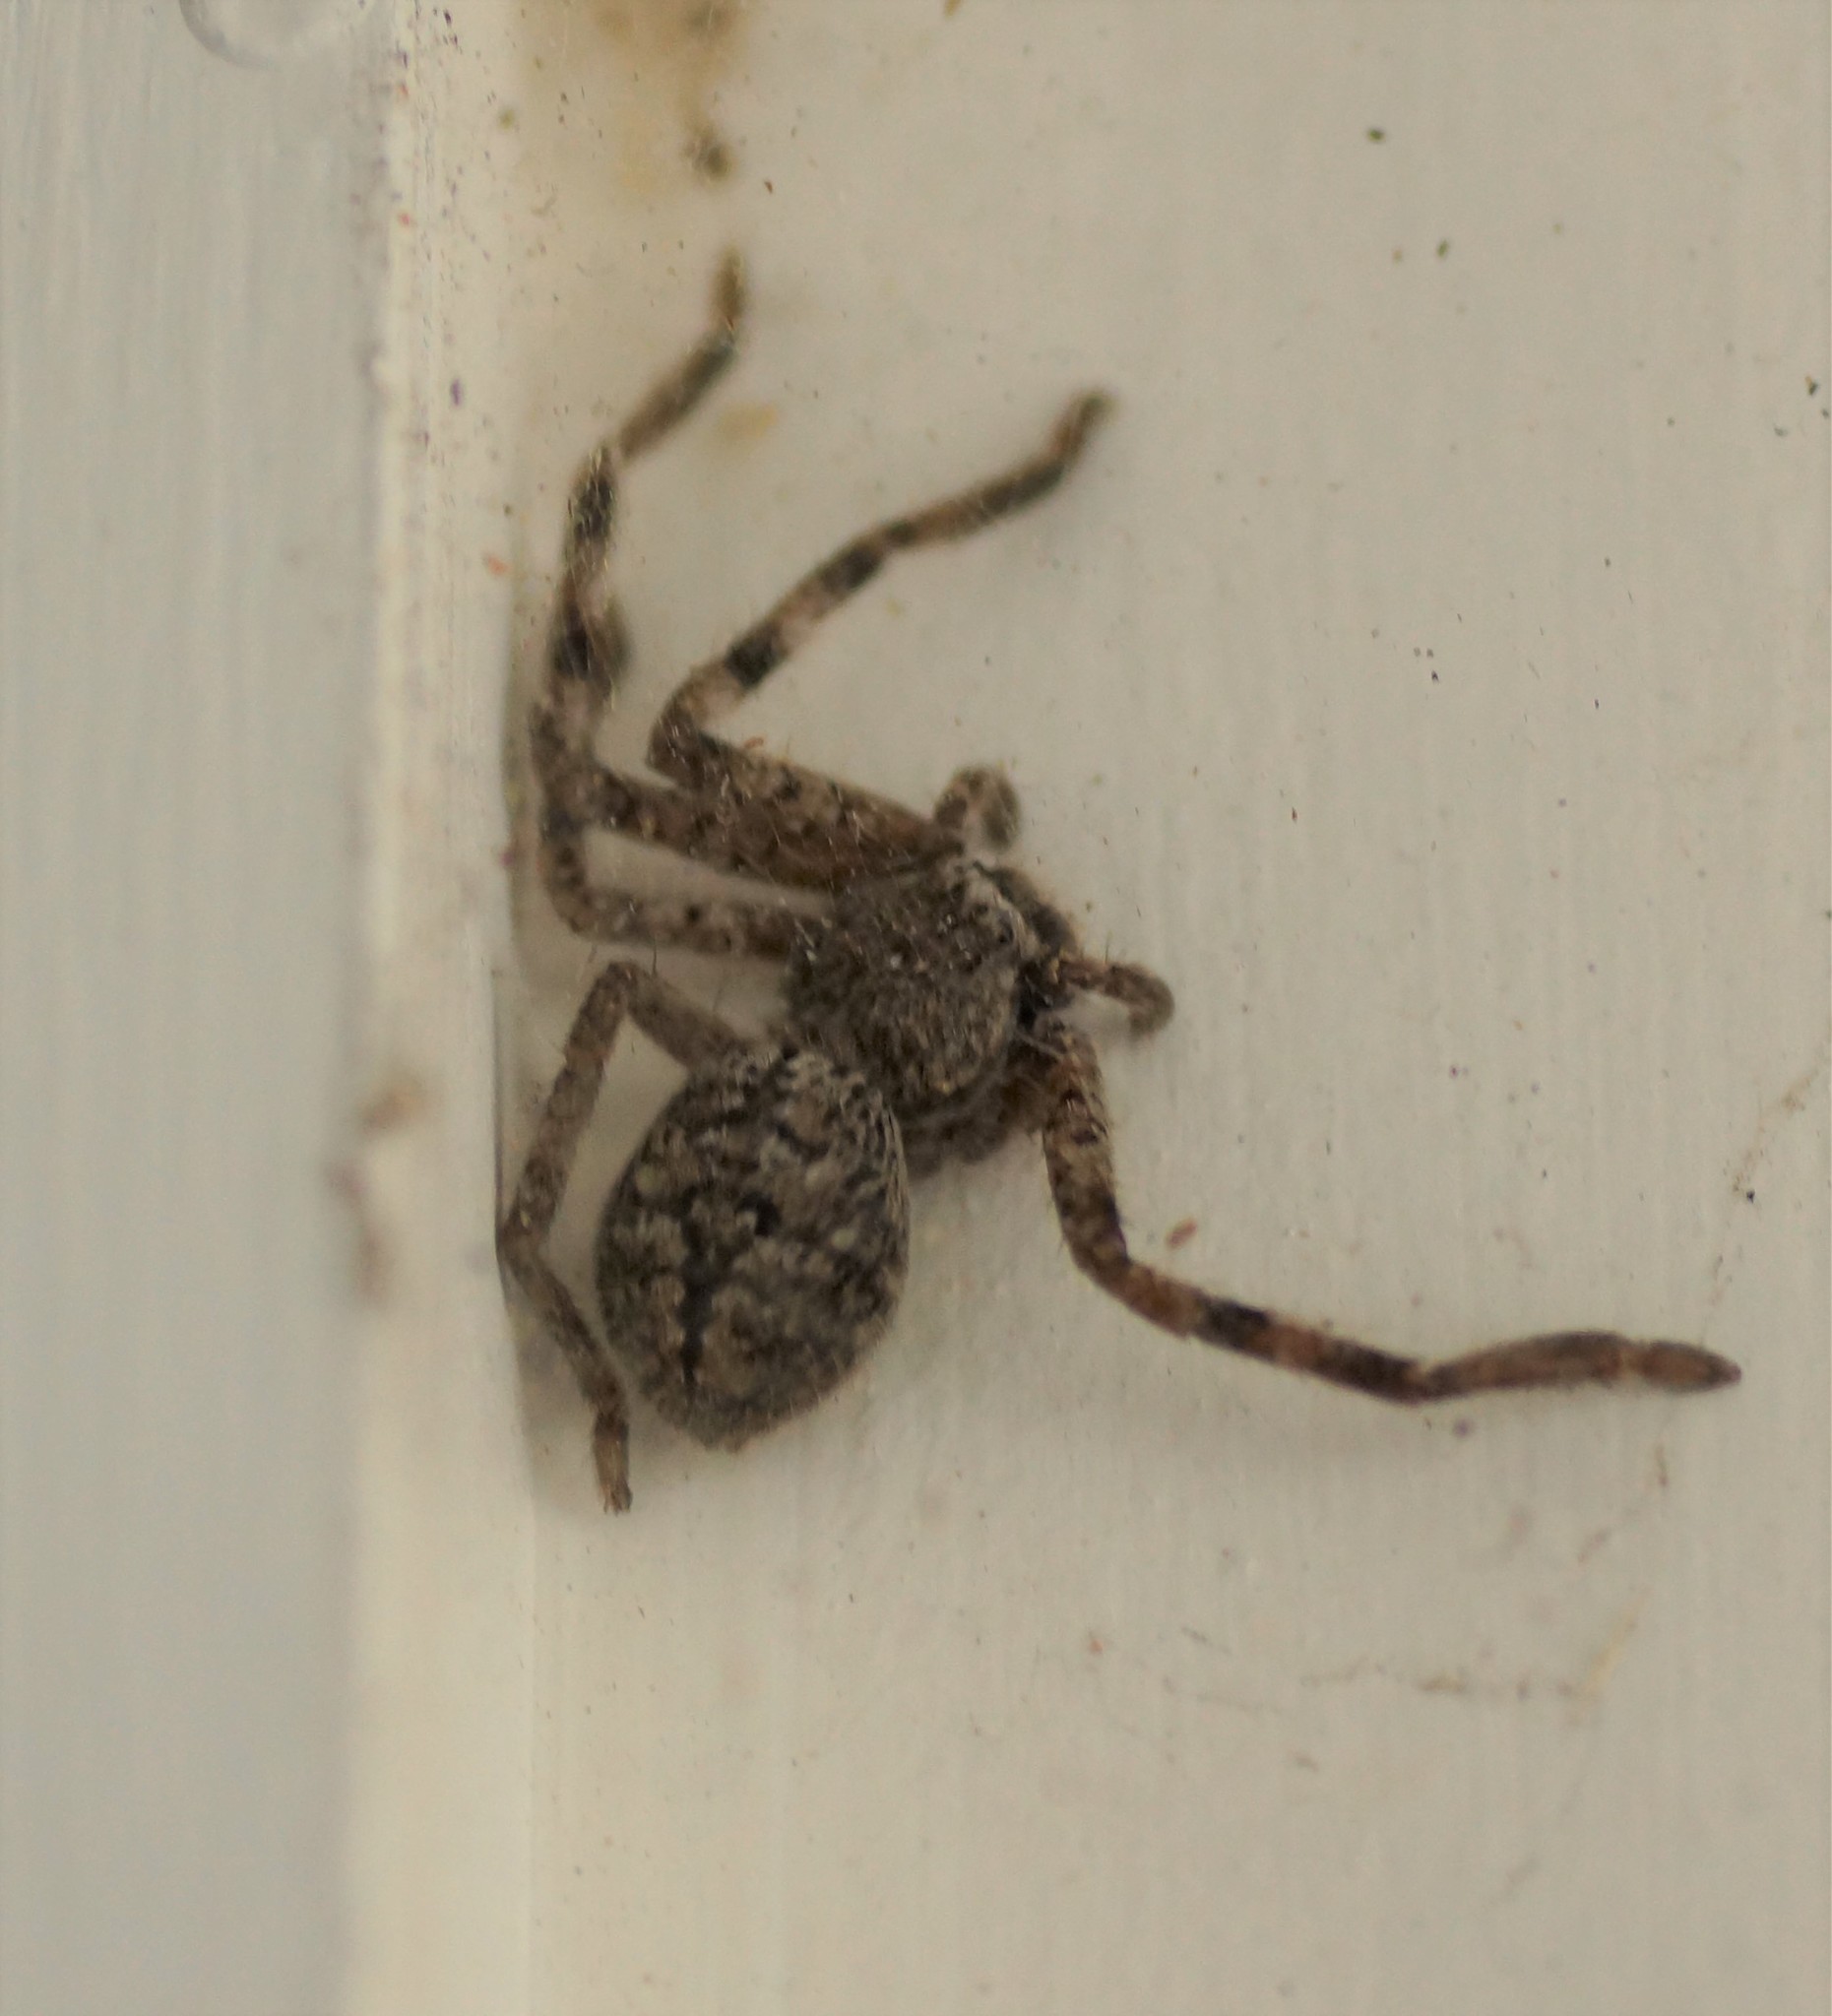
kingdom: Animalia
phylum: Arthropoda
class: Arachnida
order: Araneae
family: Sparassidae
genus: Isopedella
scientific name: Isopedella victorialis
